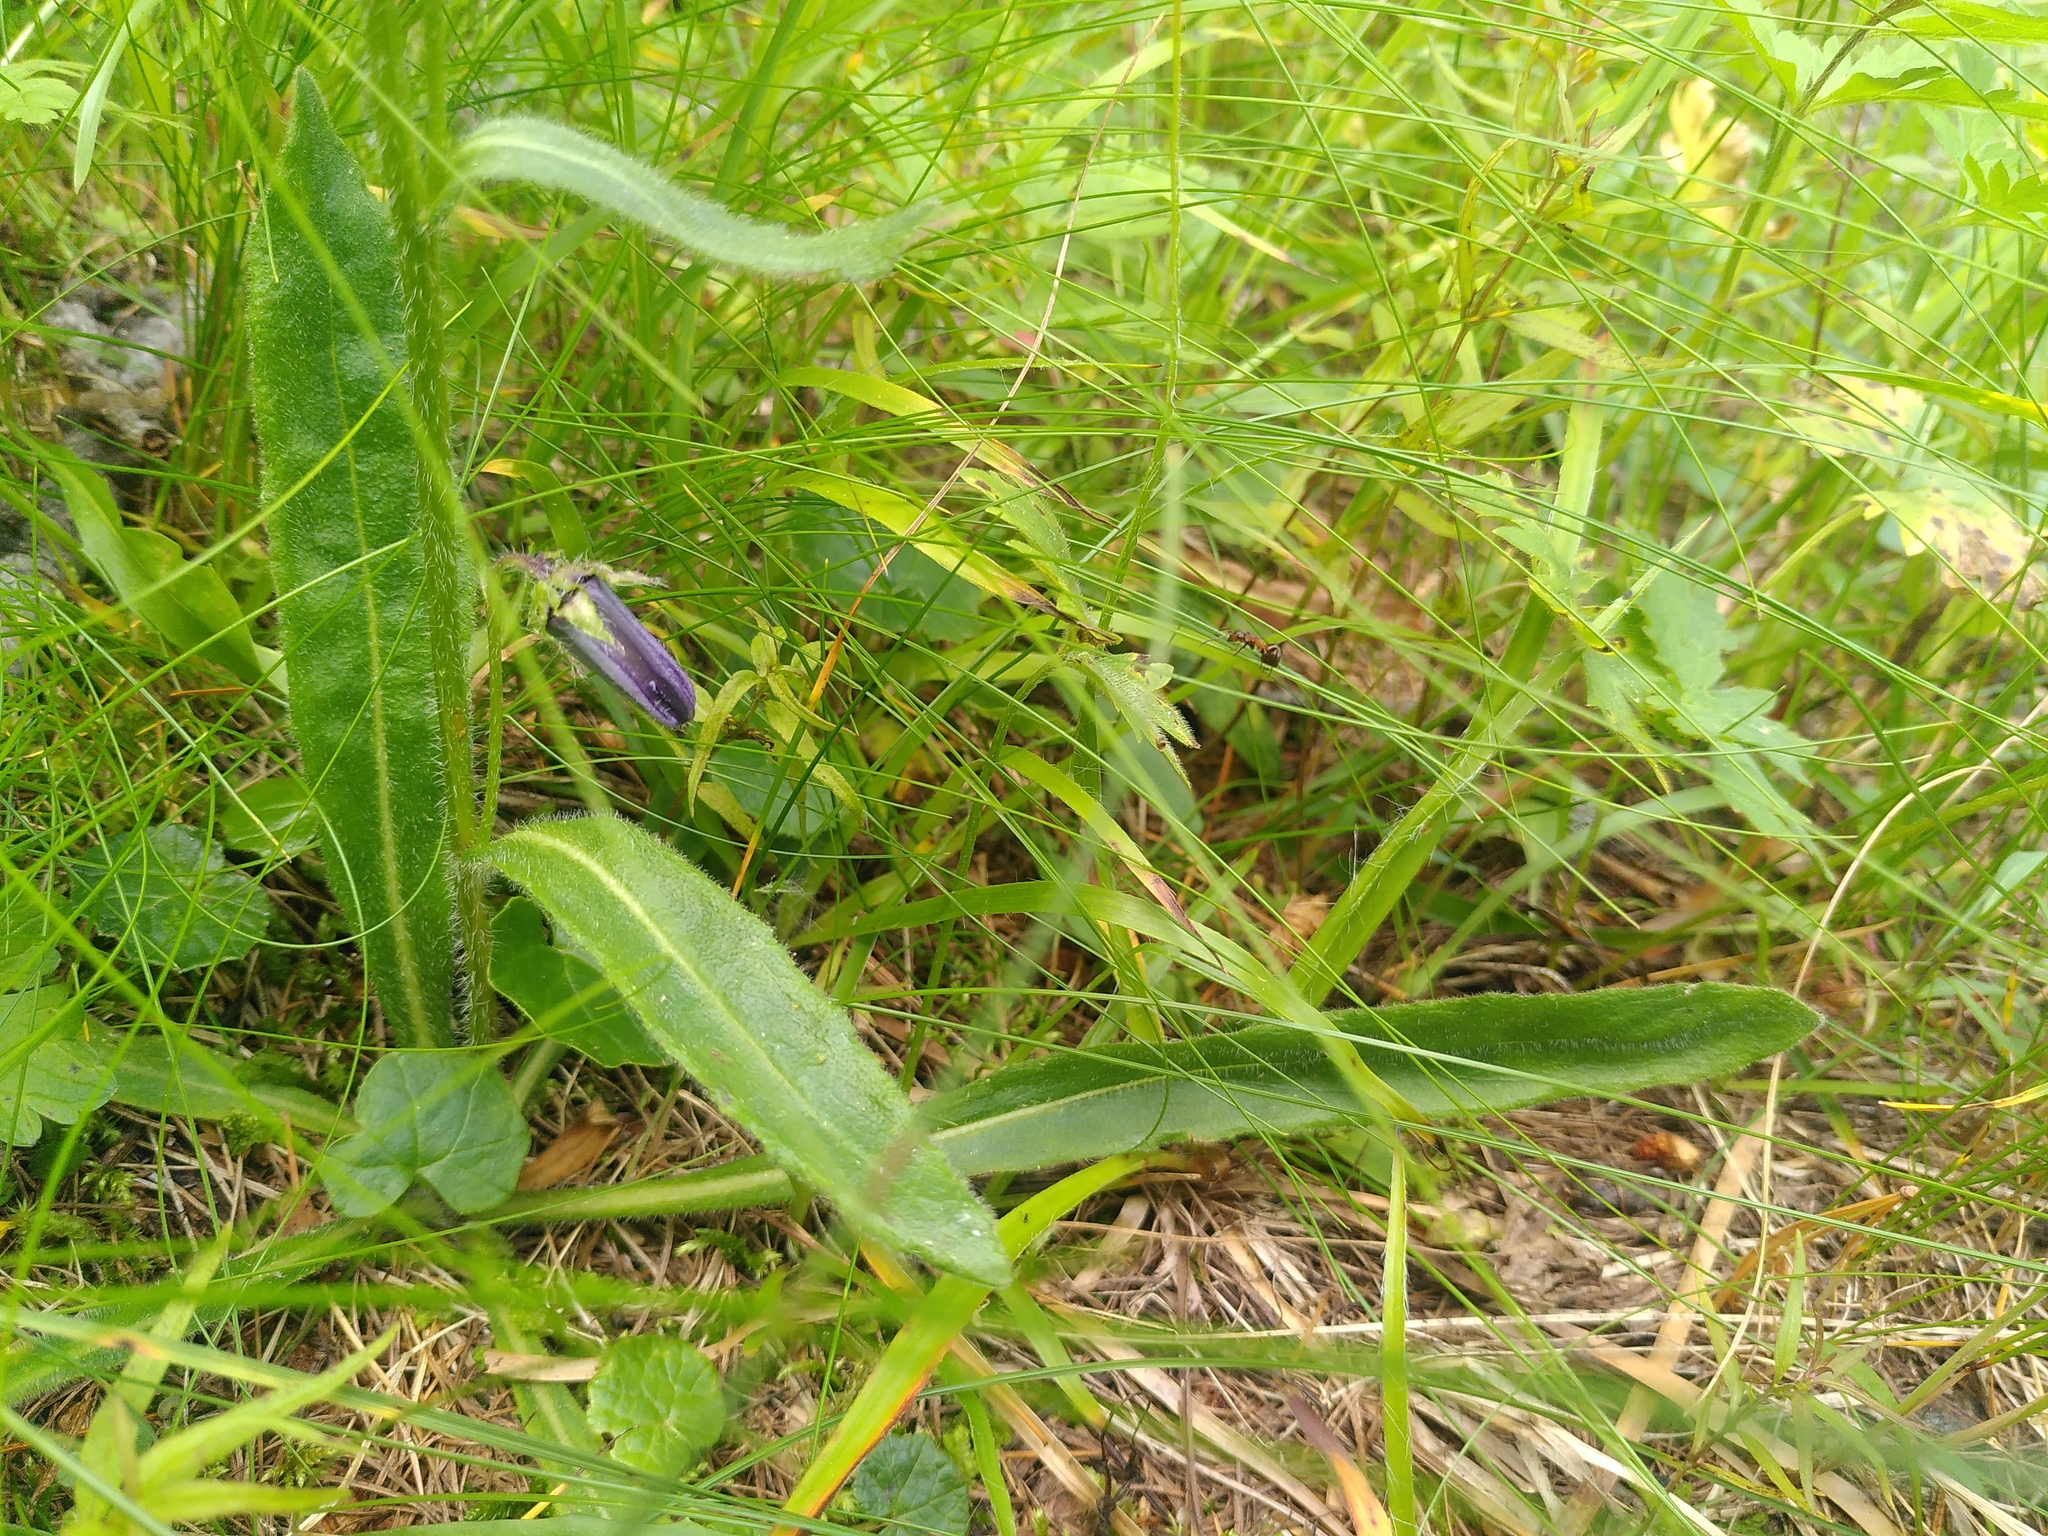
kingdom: Plantae
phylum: Tracheophyta
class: Magnoliopsida
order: Asterales
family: Campanulaceae
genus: Campanula
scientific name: Campanula barbata
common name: Bearded bellflower
